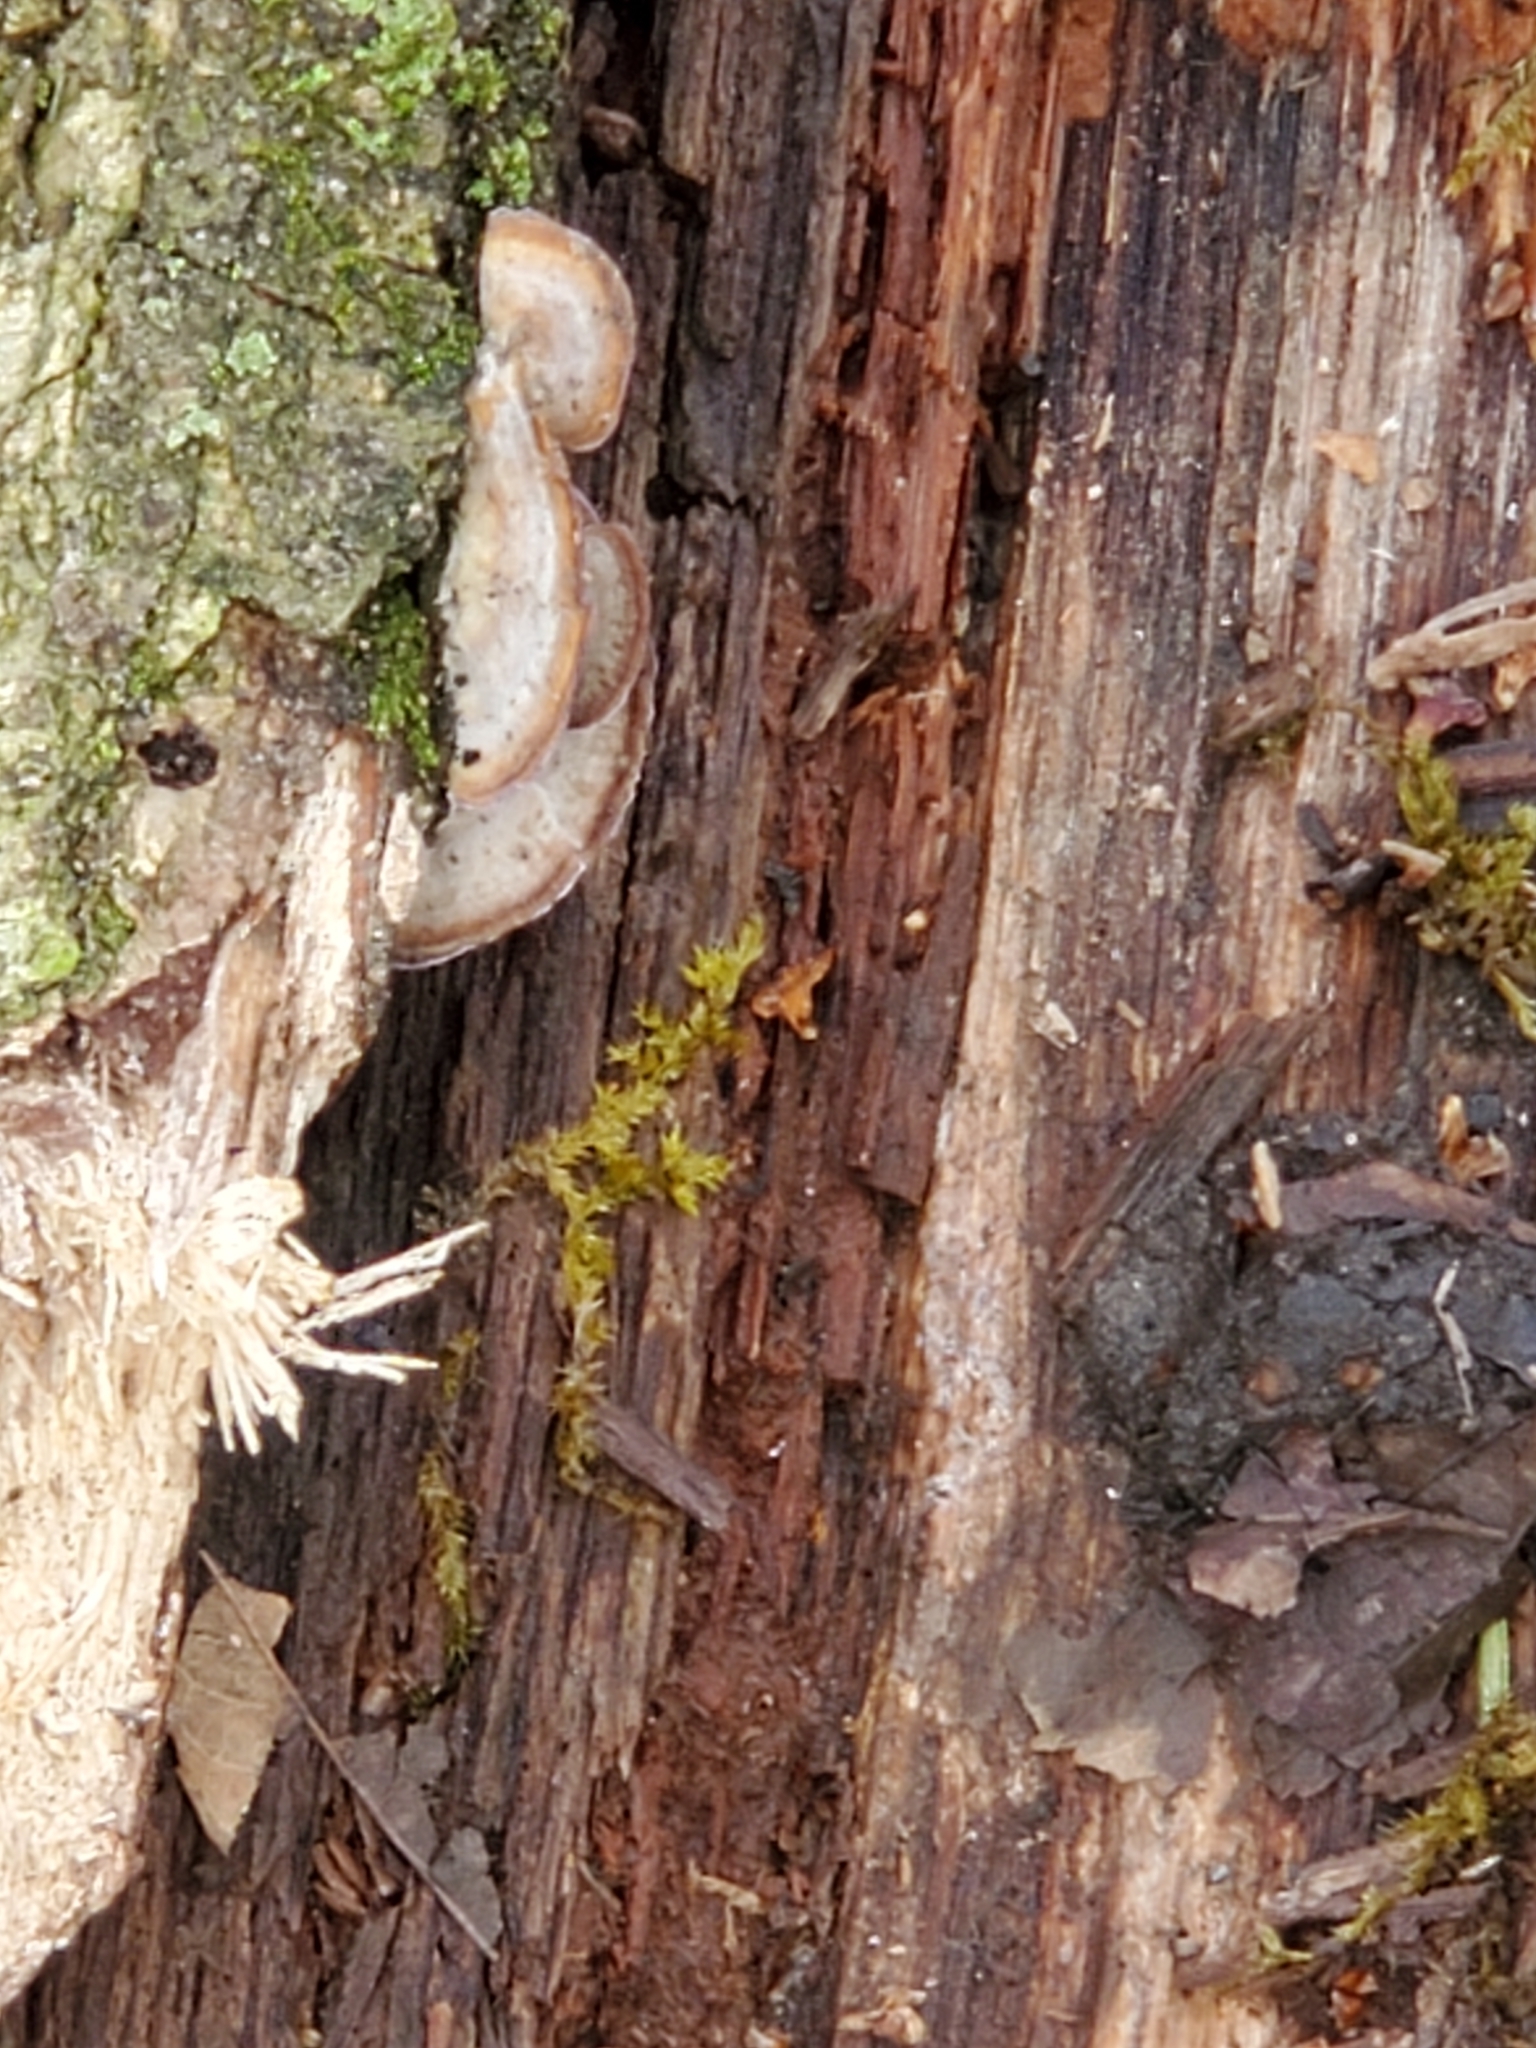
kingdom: Fungi
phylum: Basidiomycota
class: Agaricomycetes
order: Hymenochaetales
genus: Trichaptum
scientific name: Trichaptum biforme
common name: Violet-toothed polypore
